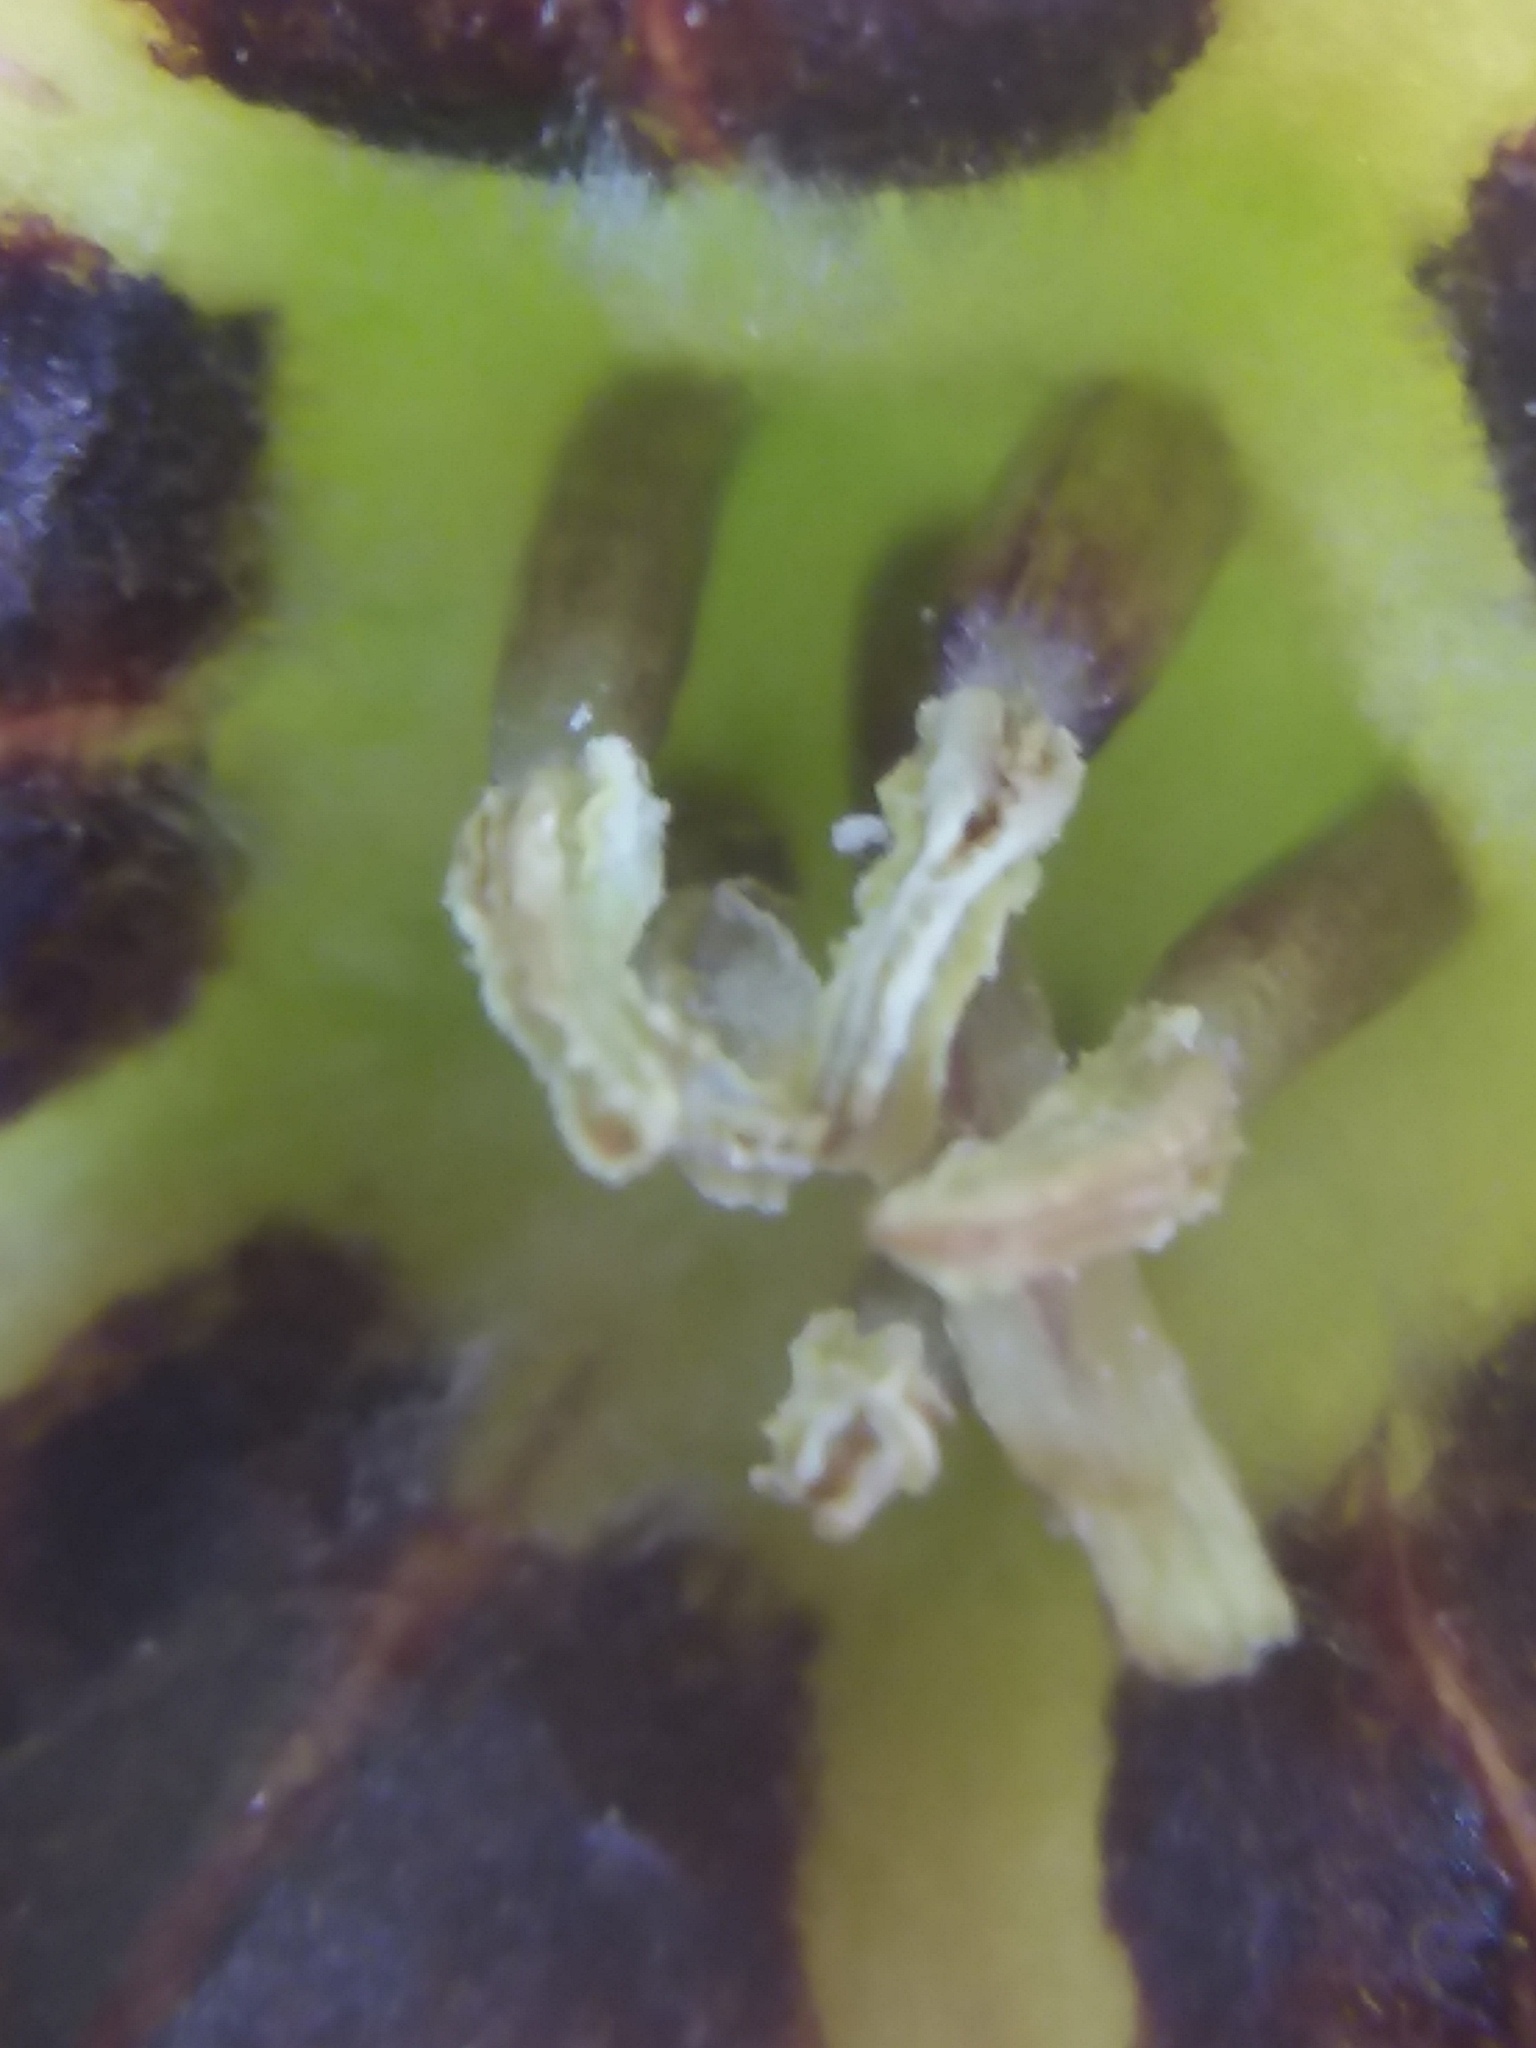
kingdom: Plantae
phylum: Tracheophyta
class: Magnoliopsida
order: Solanales
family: Solanaceae
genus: Physalis
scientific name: Physalis walteri
